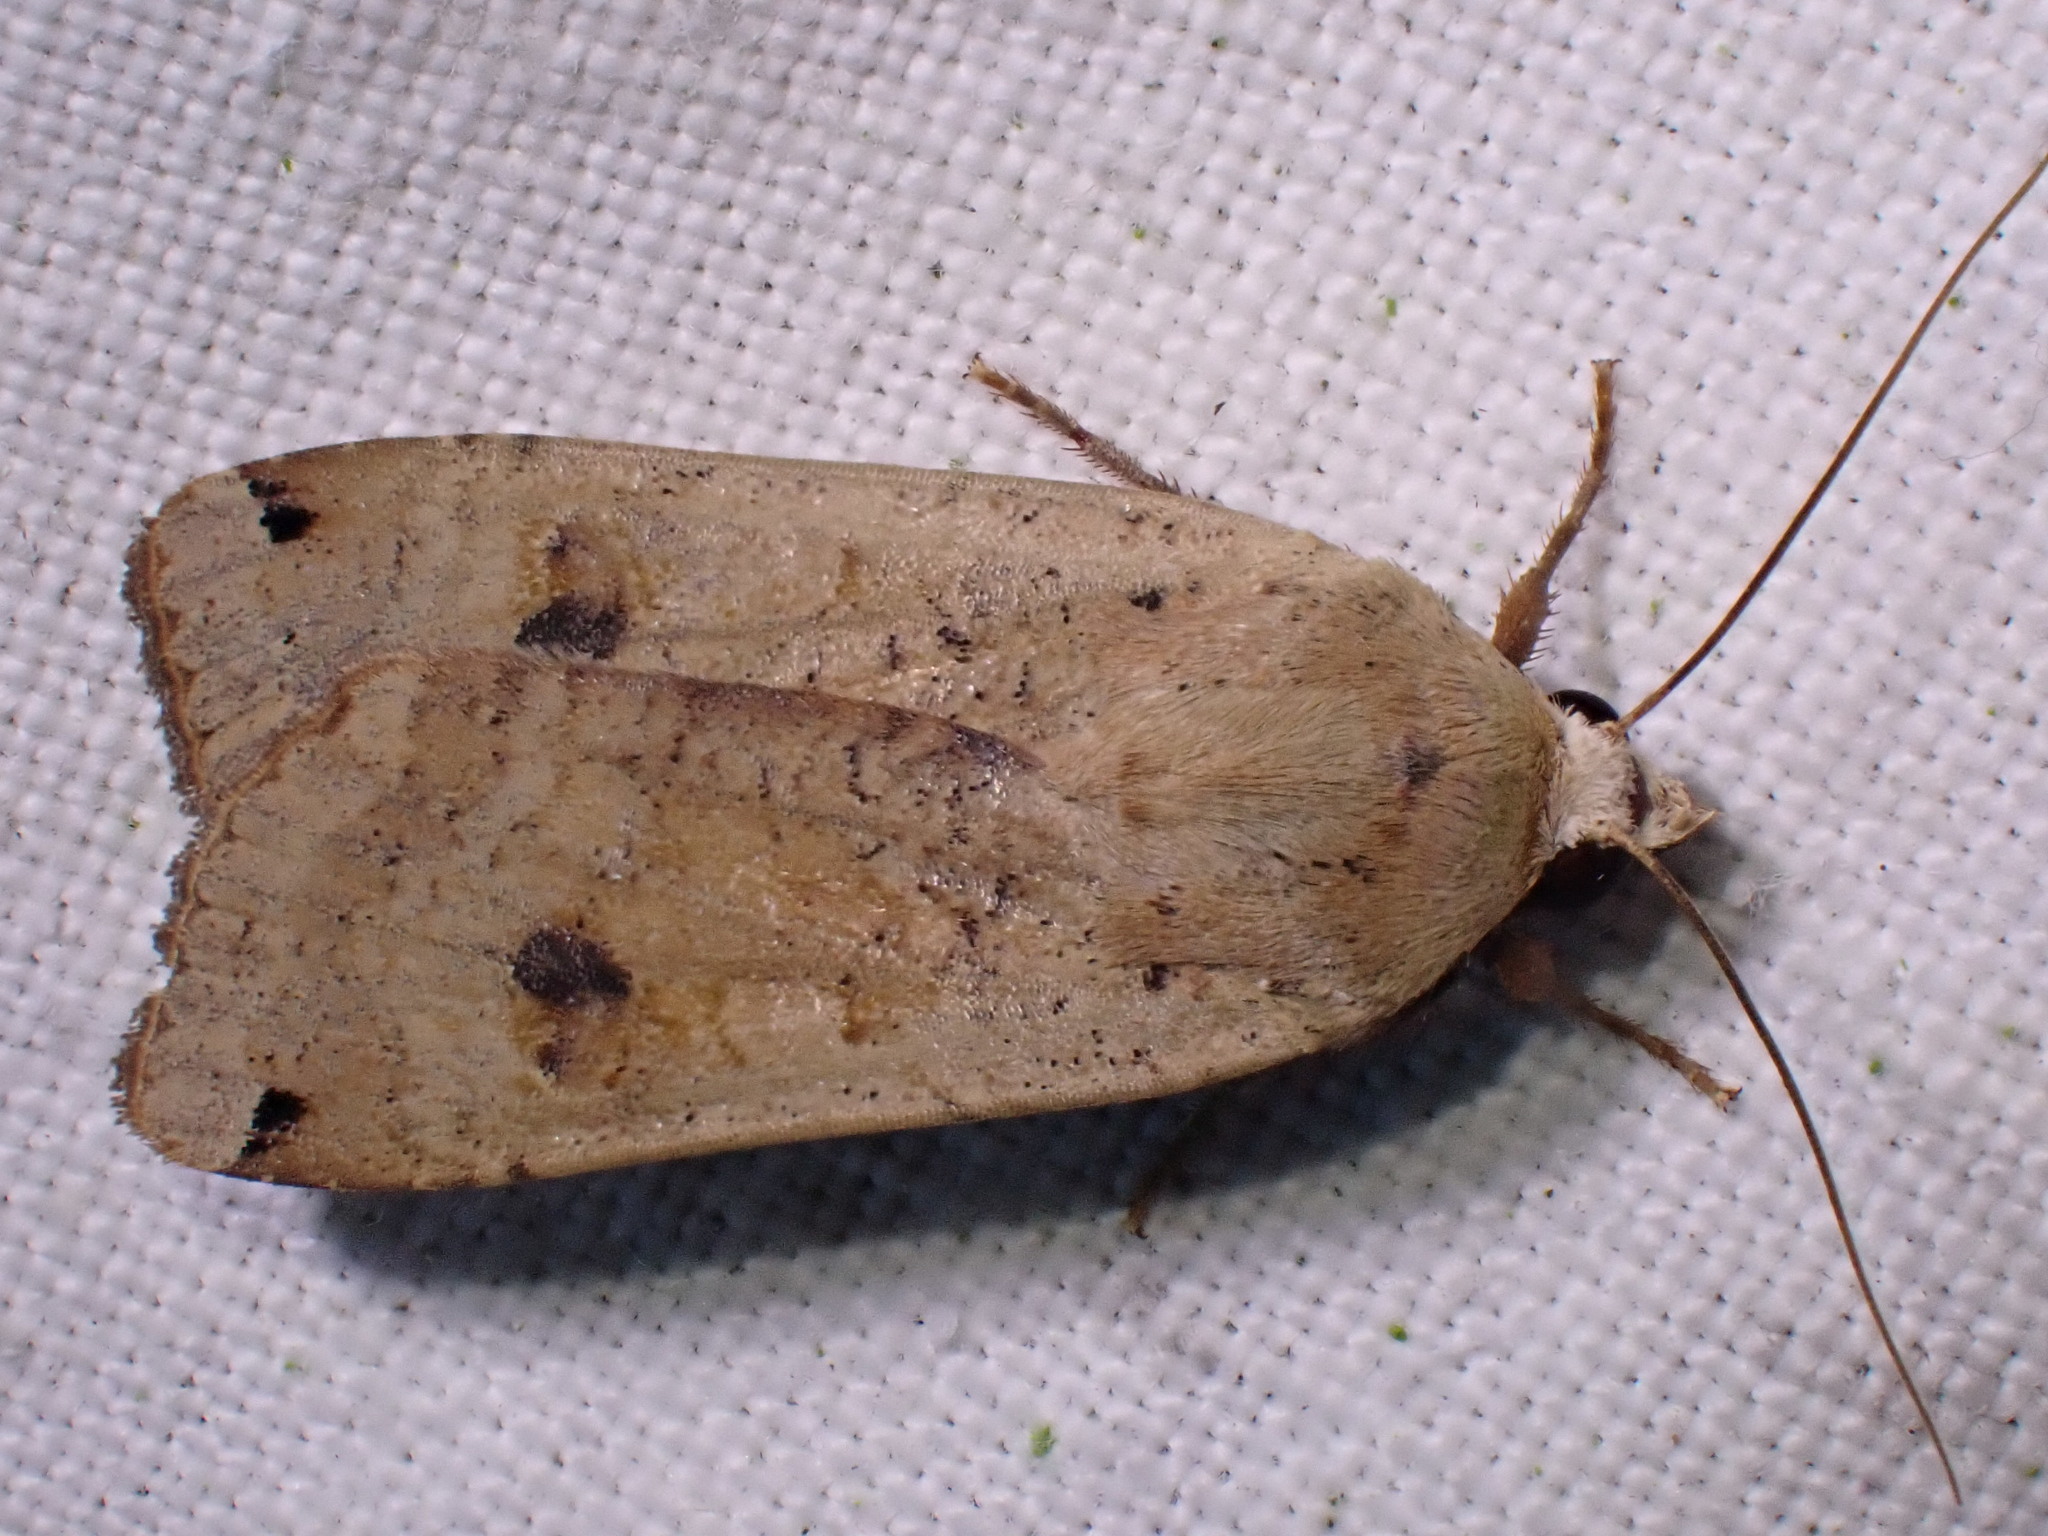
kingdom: Animalia
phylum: Arthropoda
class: Insecta
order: Lepidoptera
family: Noctuidae
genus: Noctua
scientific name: Noctua pronuba
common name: Large yellow underwing
